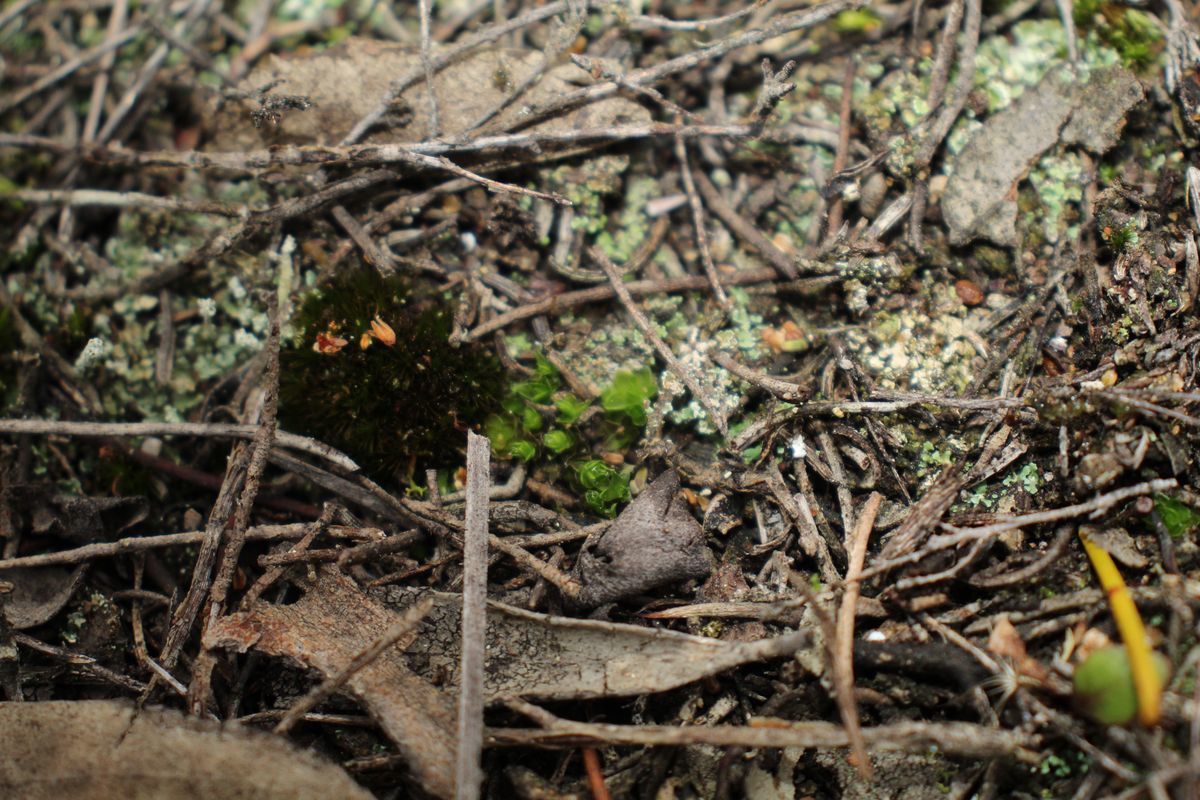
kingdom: Plantae
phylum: Bryophyta
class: Bryopsida
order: Pottiales
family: Pleurophascaceae
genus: Pleurophascum
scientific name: Pleurophascum occidentale
